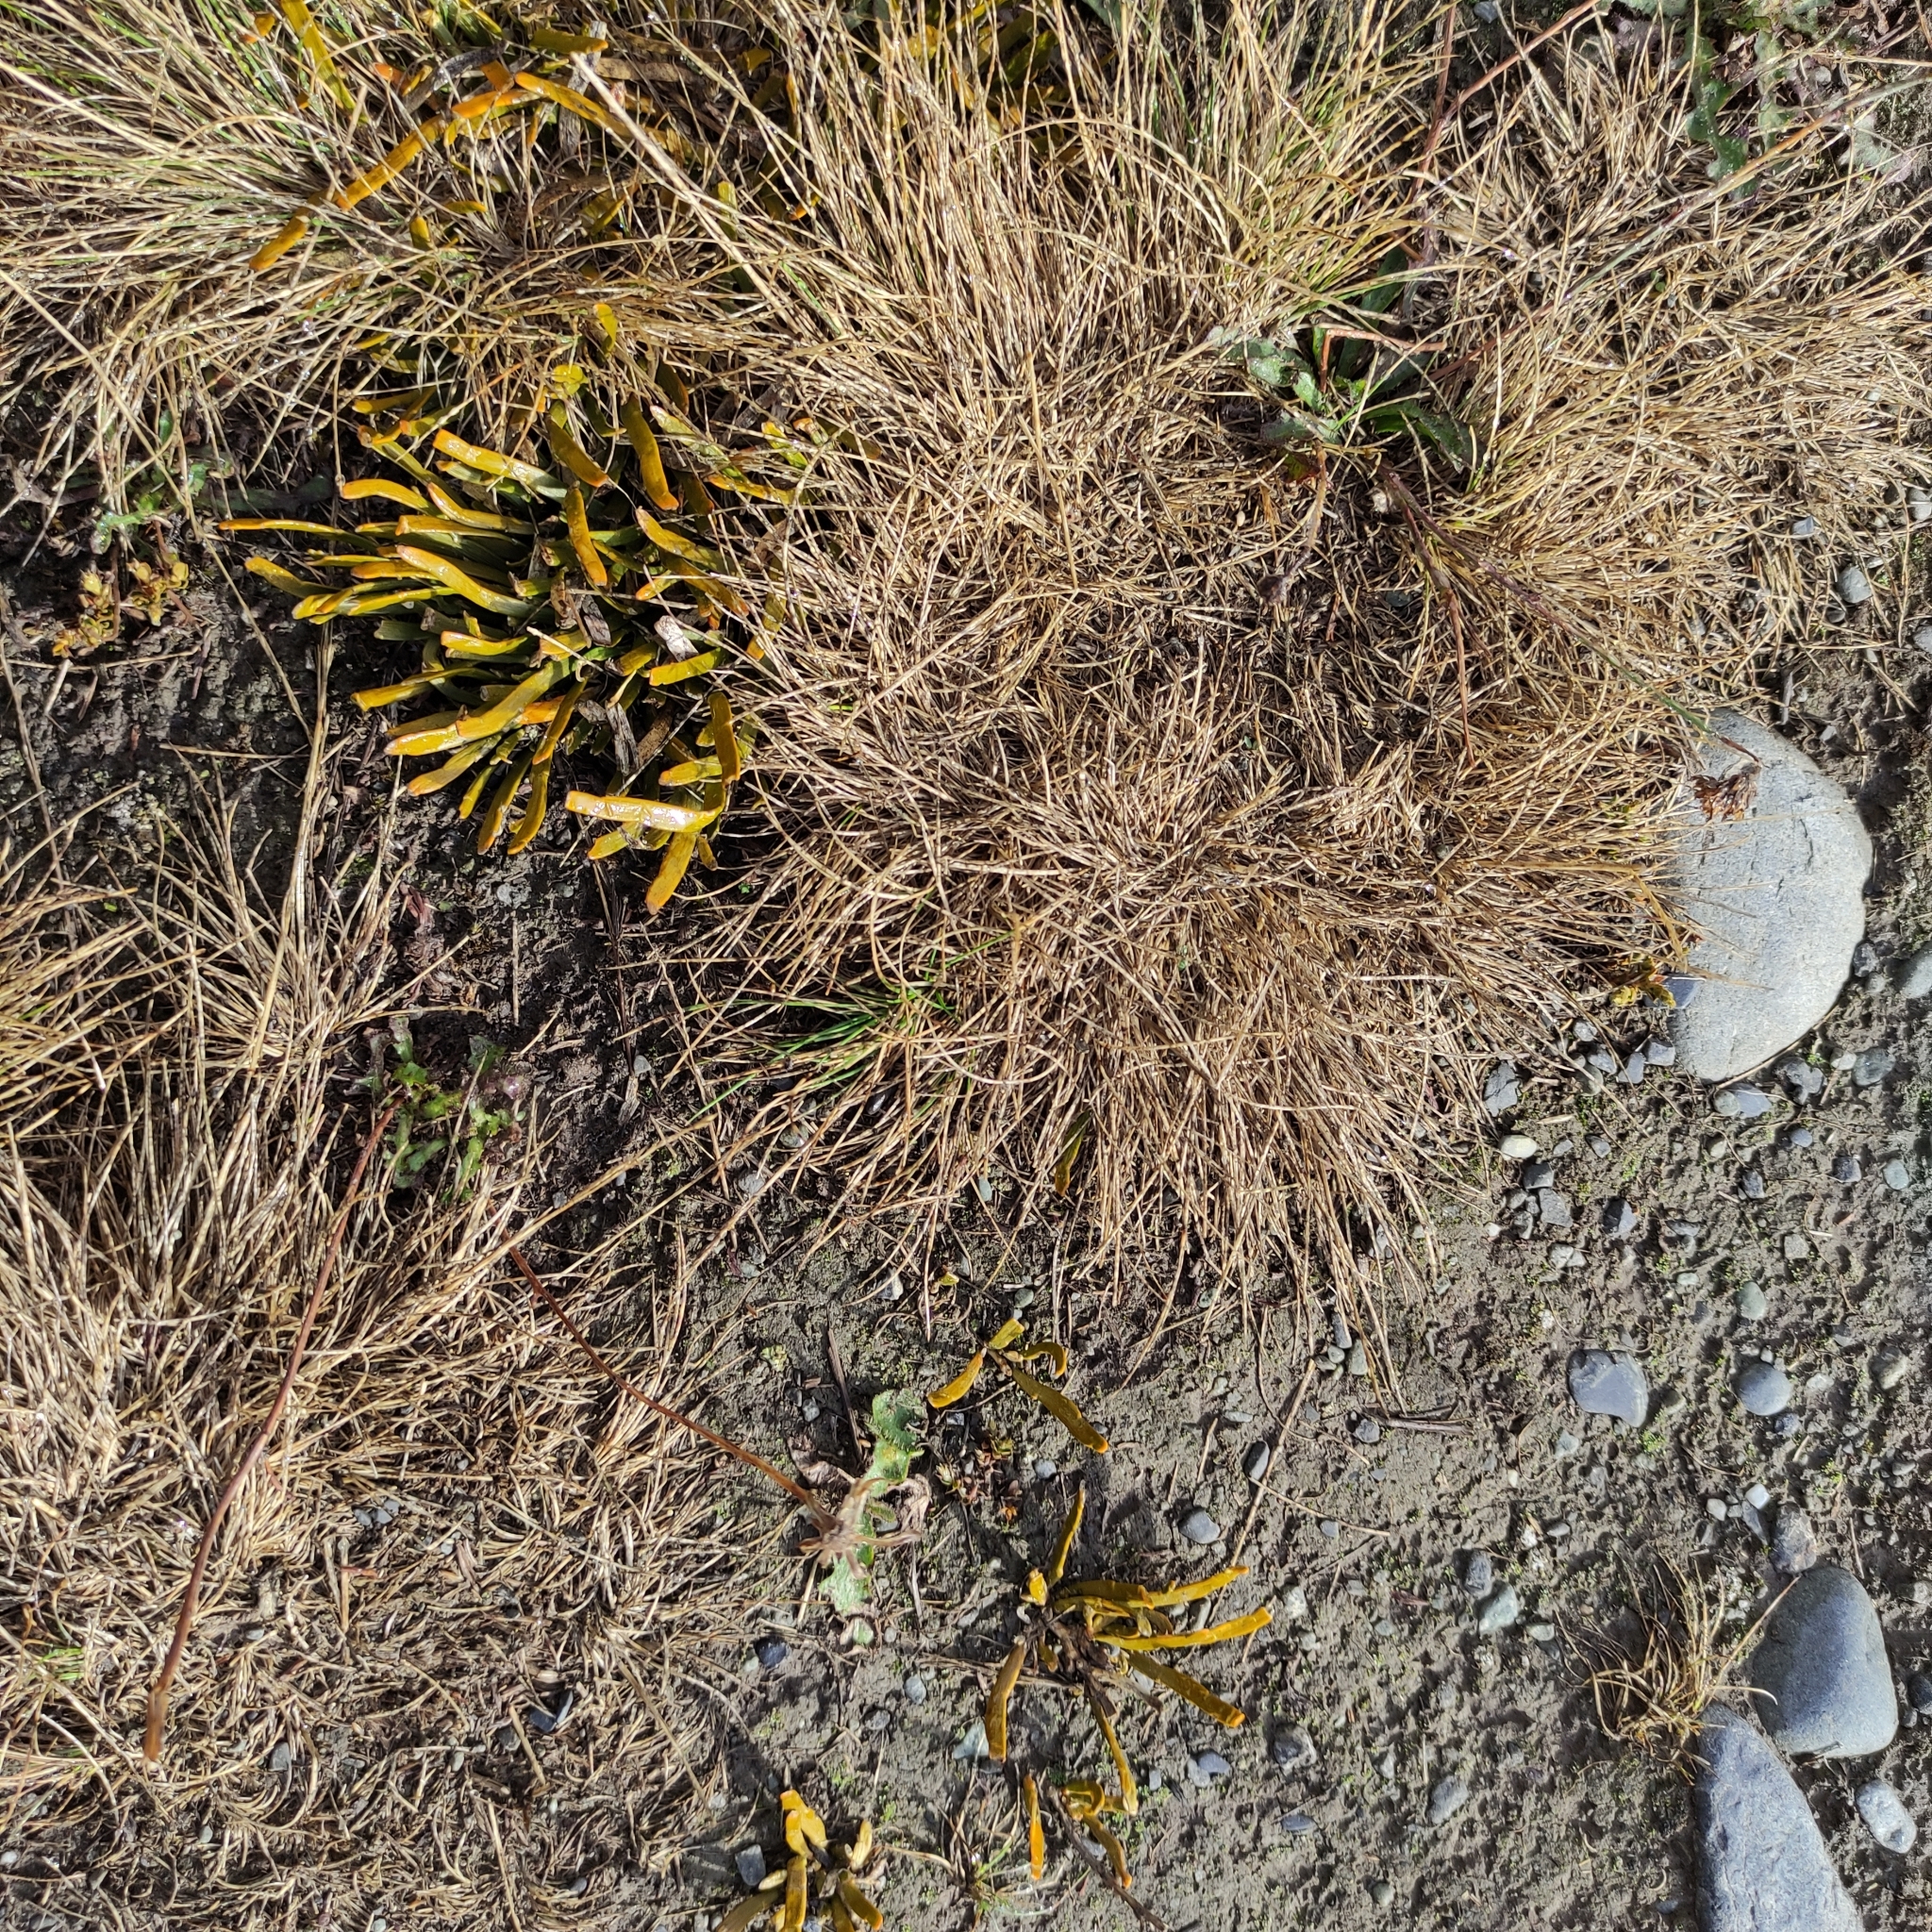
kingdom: Plantae
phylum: Tracheophyta
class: Magnoliopsida
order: Fabales
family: Fabaceae
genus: Carmichaelia
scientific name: Carmichaelia corrugata
